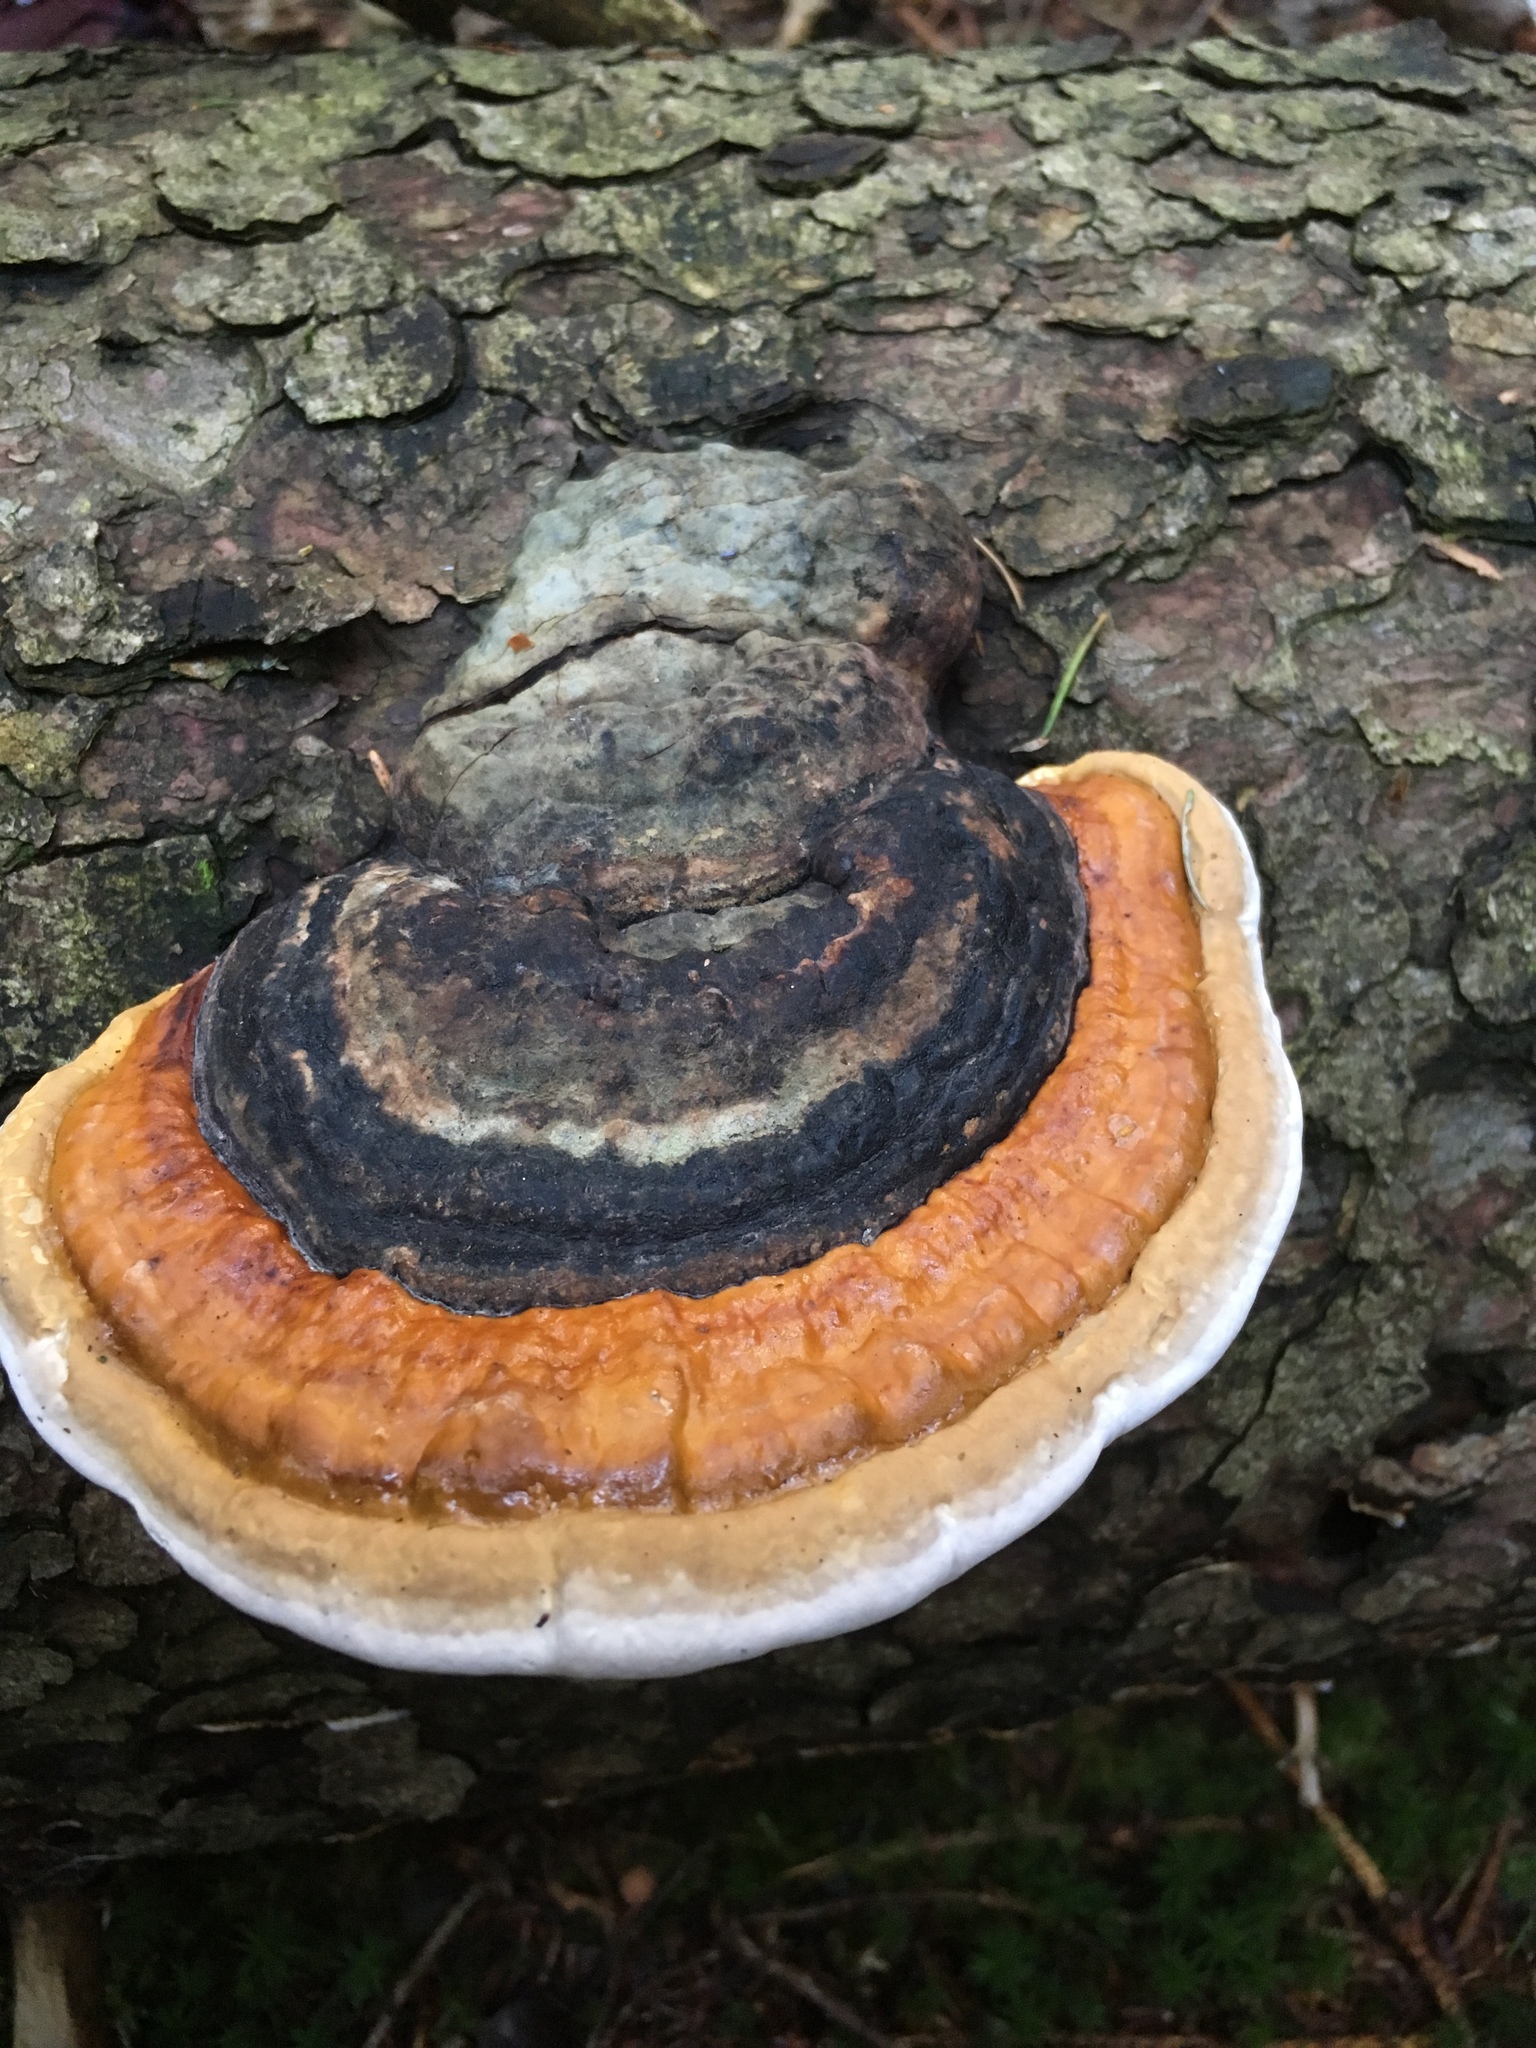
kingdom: Fungi
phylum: Basidiomycota
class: Agaricomycetes
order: Polyporales
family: Fomitopsidaceae
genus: Fomitopsis
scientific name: Fomitopsis pinicola
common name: Red-belted bracket
